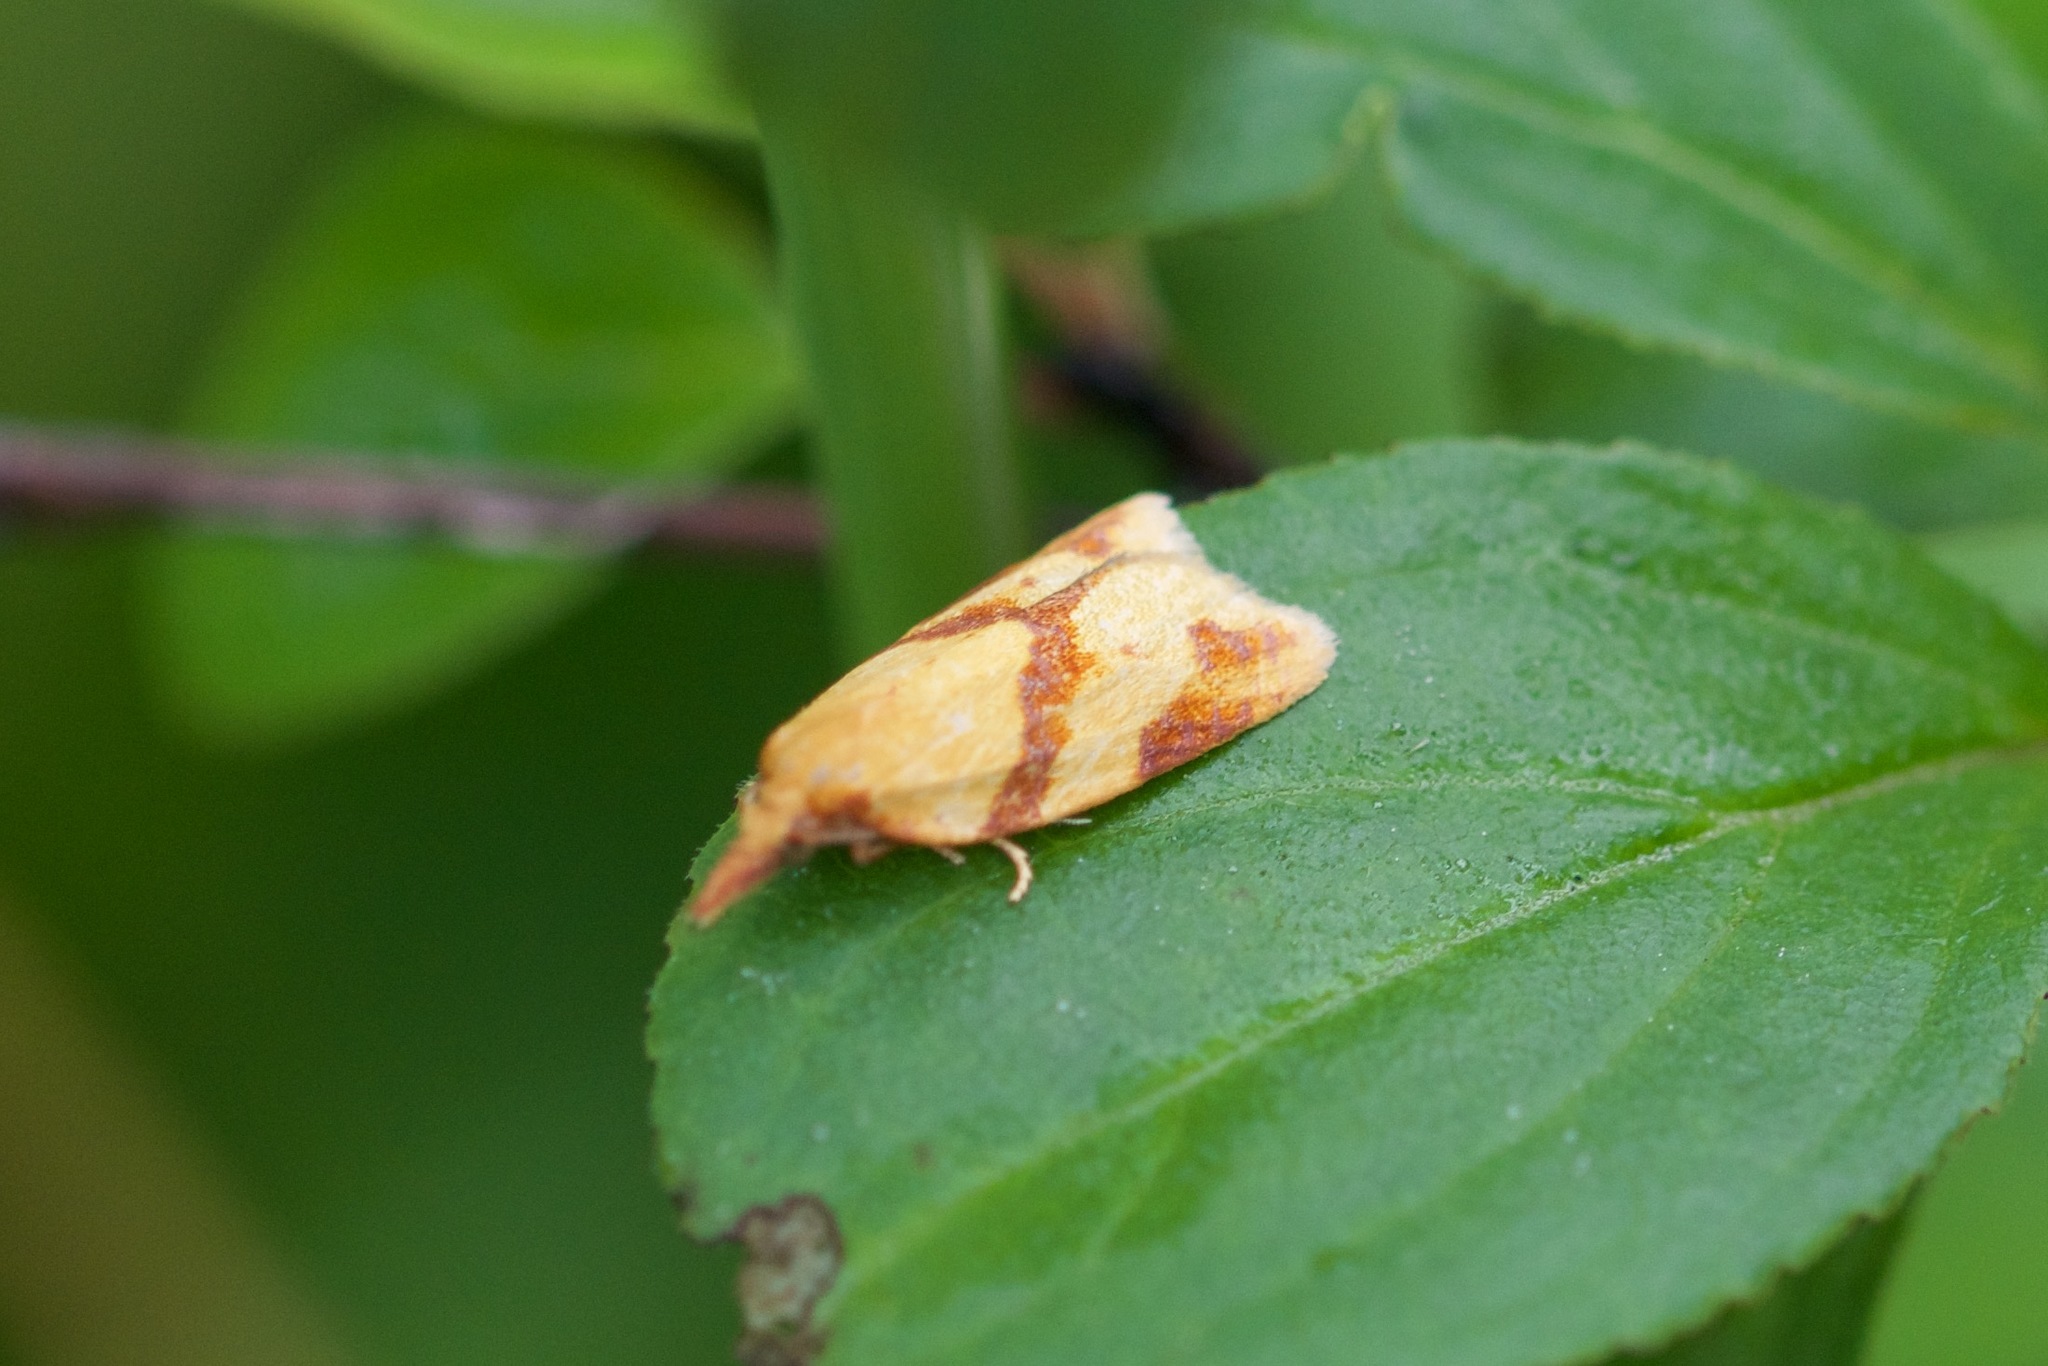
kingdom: Animalia
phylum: Arthropoda
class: Insecta
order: Lepidoptera
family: Tortricidae
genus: Sparganothis
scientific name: Sparganothis unifasciana
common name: One-lined sparganothis moth
